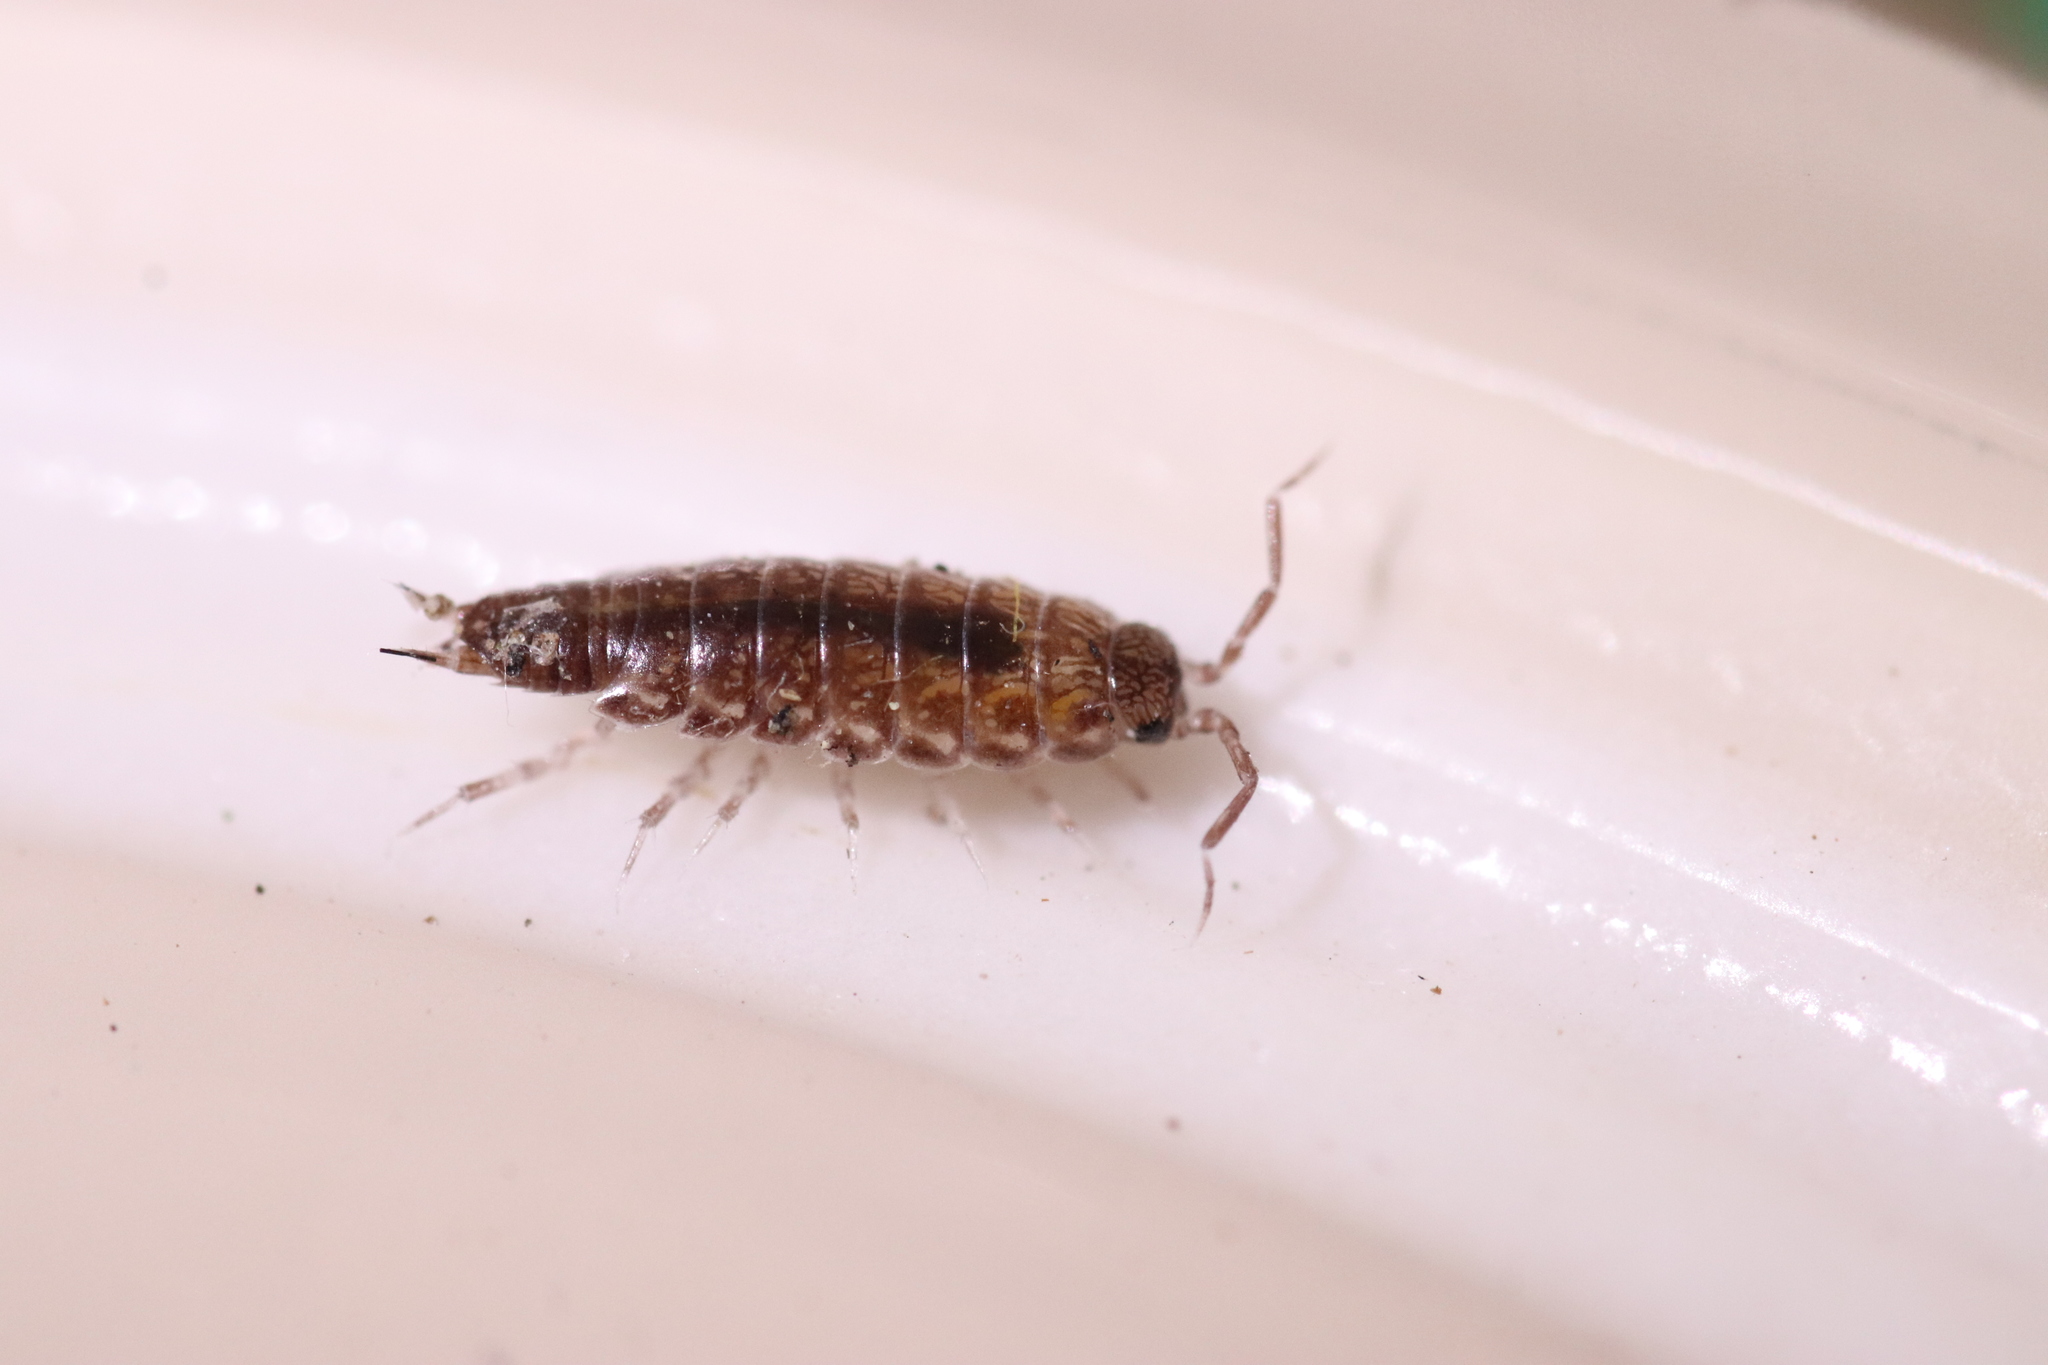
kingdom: Animalia
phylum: Arthropoda
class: Malacostraca
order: Isopoda
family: Philosciidae
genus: Chaetophiloscia
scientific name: Chaetophiloscia sicula
